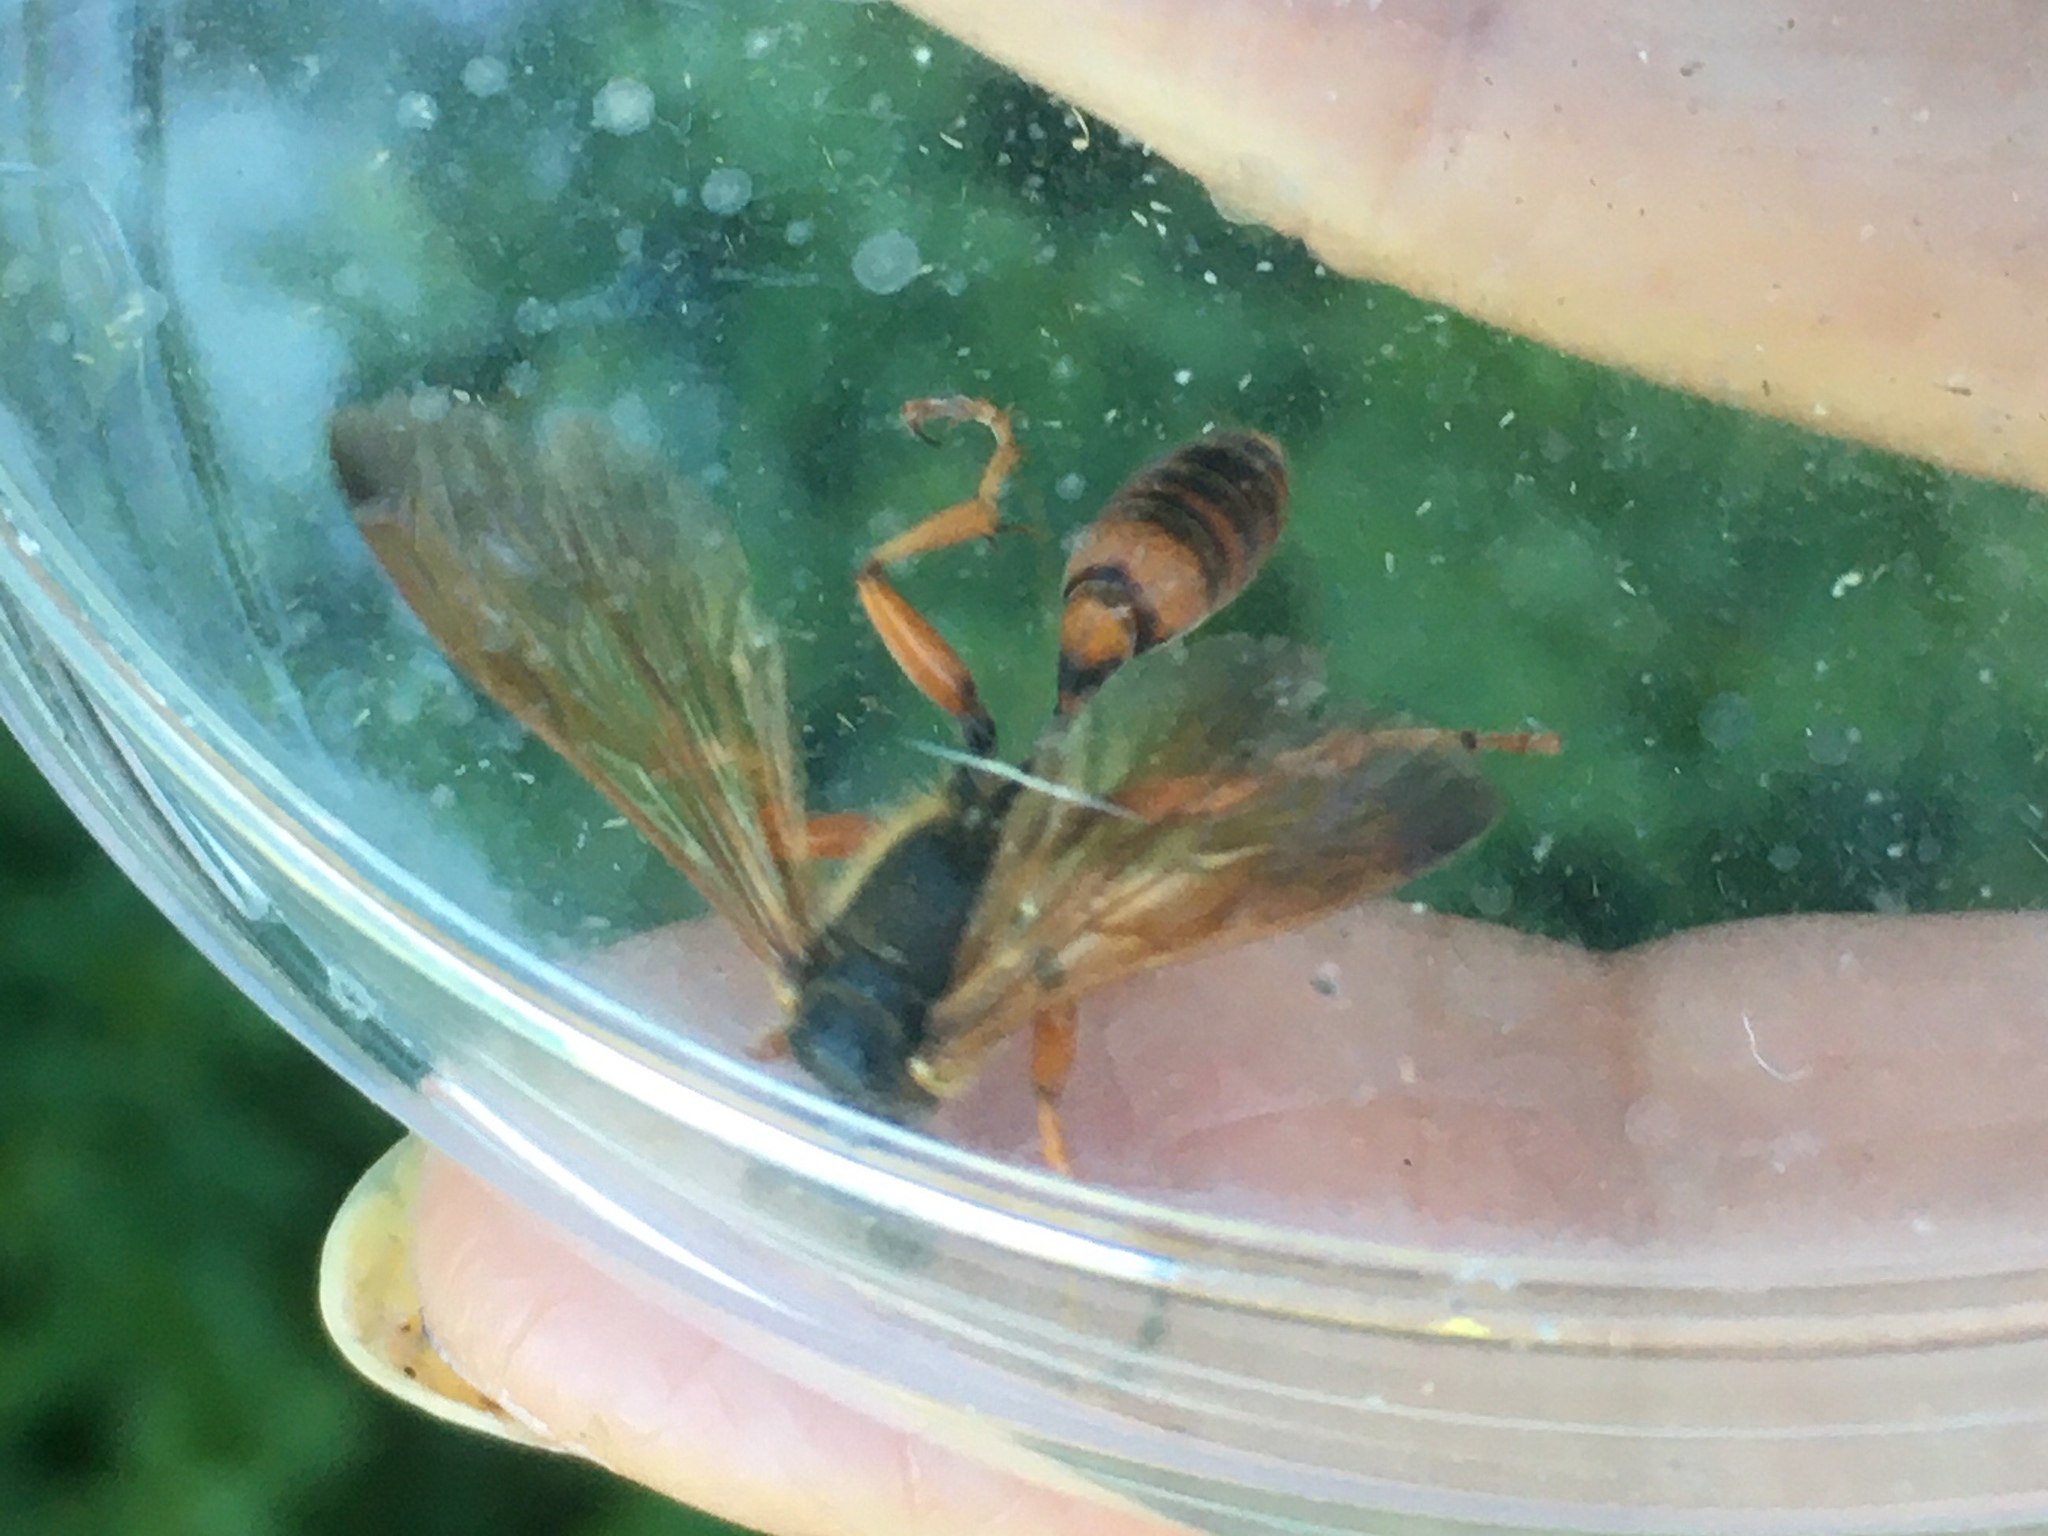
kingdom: Animalia
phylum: Arthropoda
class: Insecta
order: Hymenoptera
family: Sphecidae
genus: Isodontia
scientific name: Isodontia elegans
